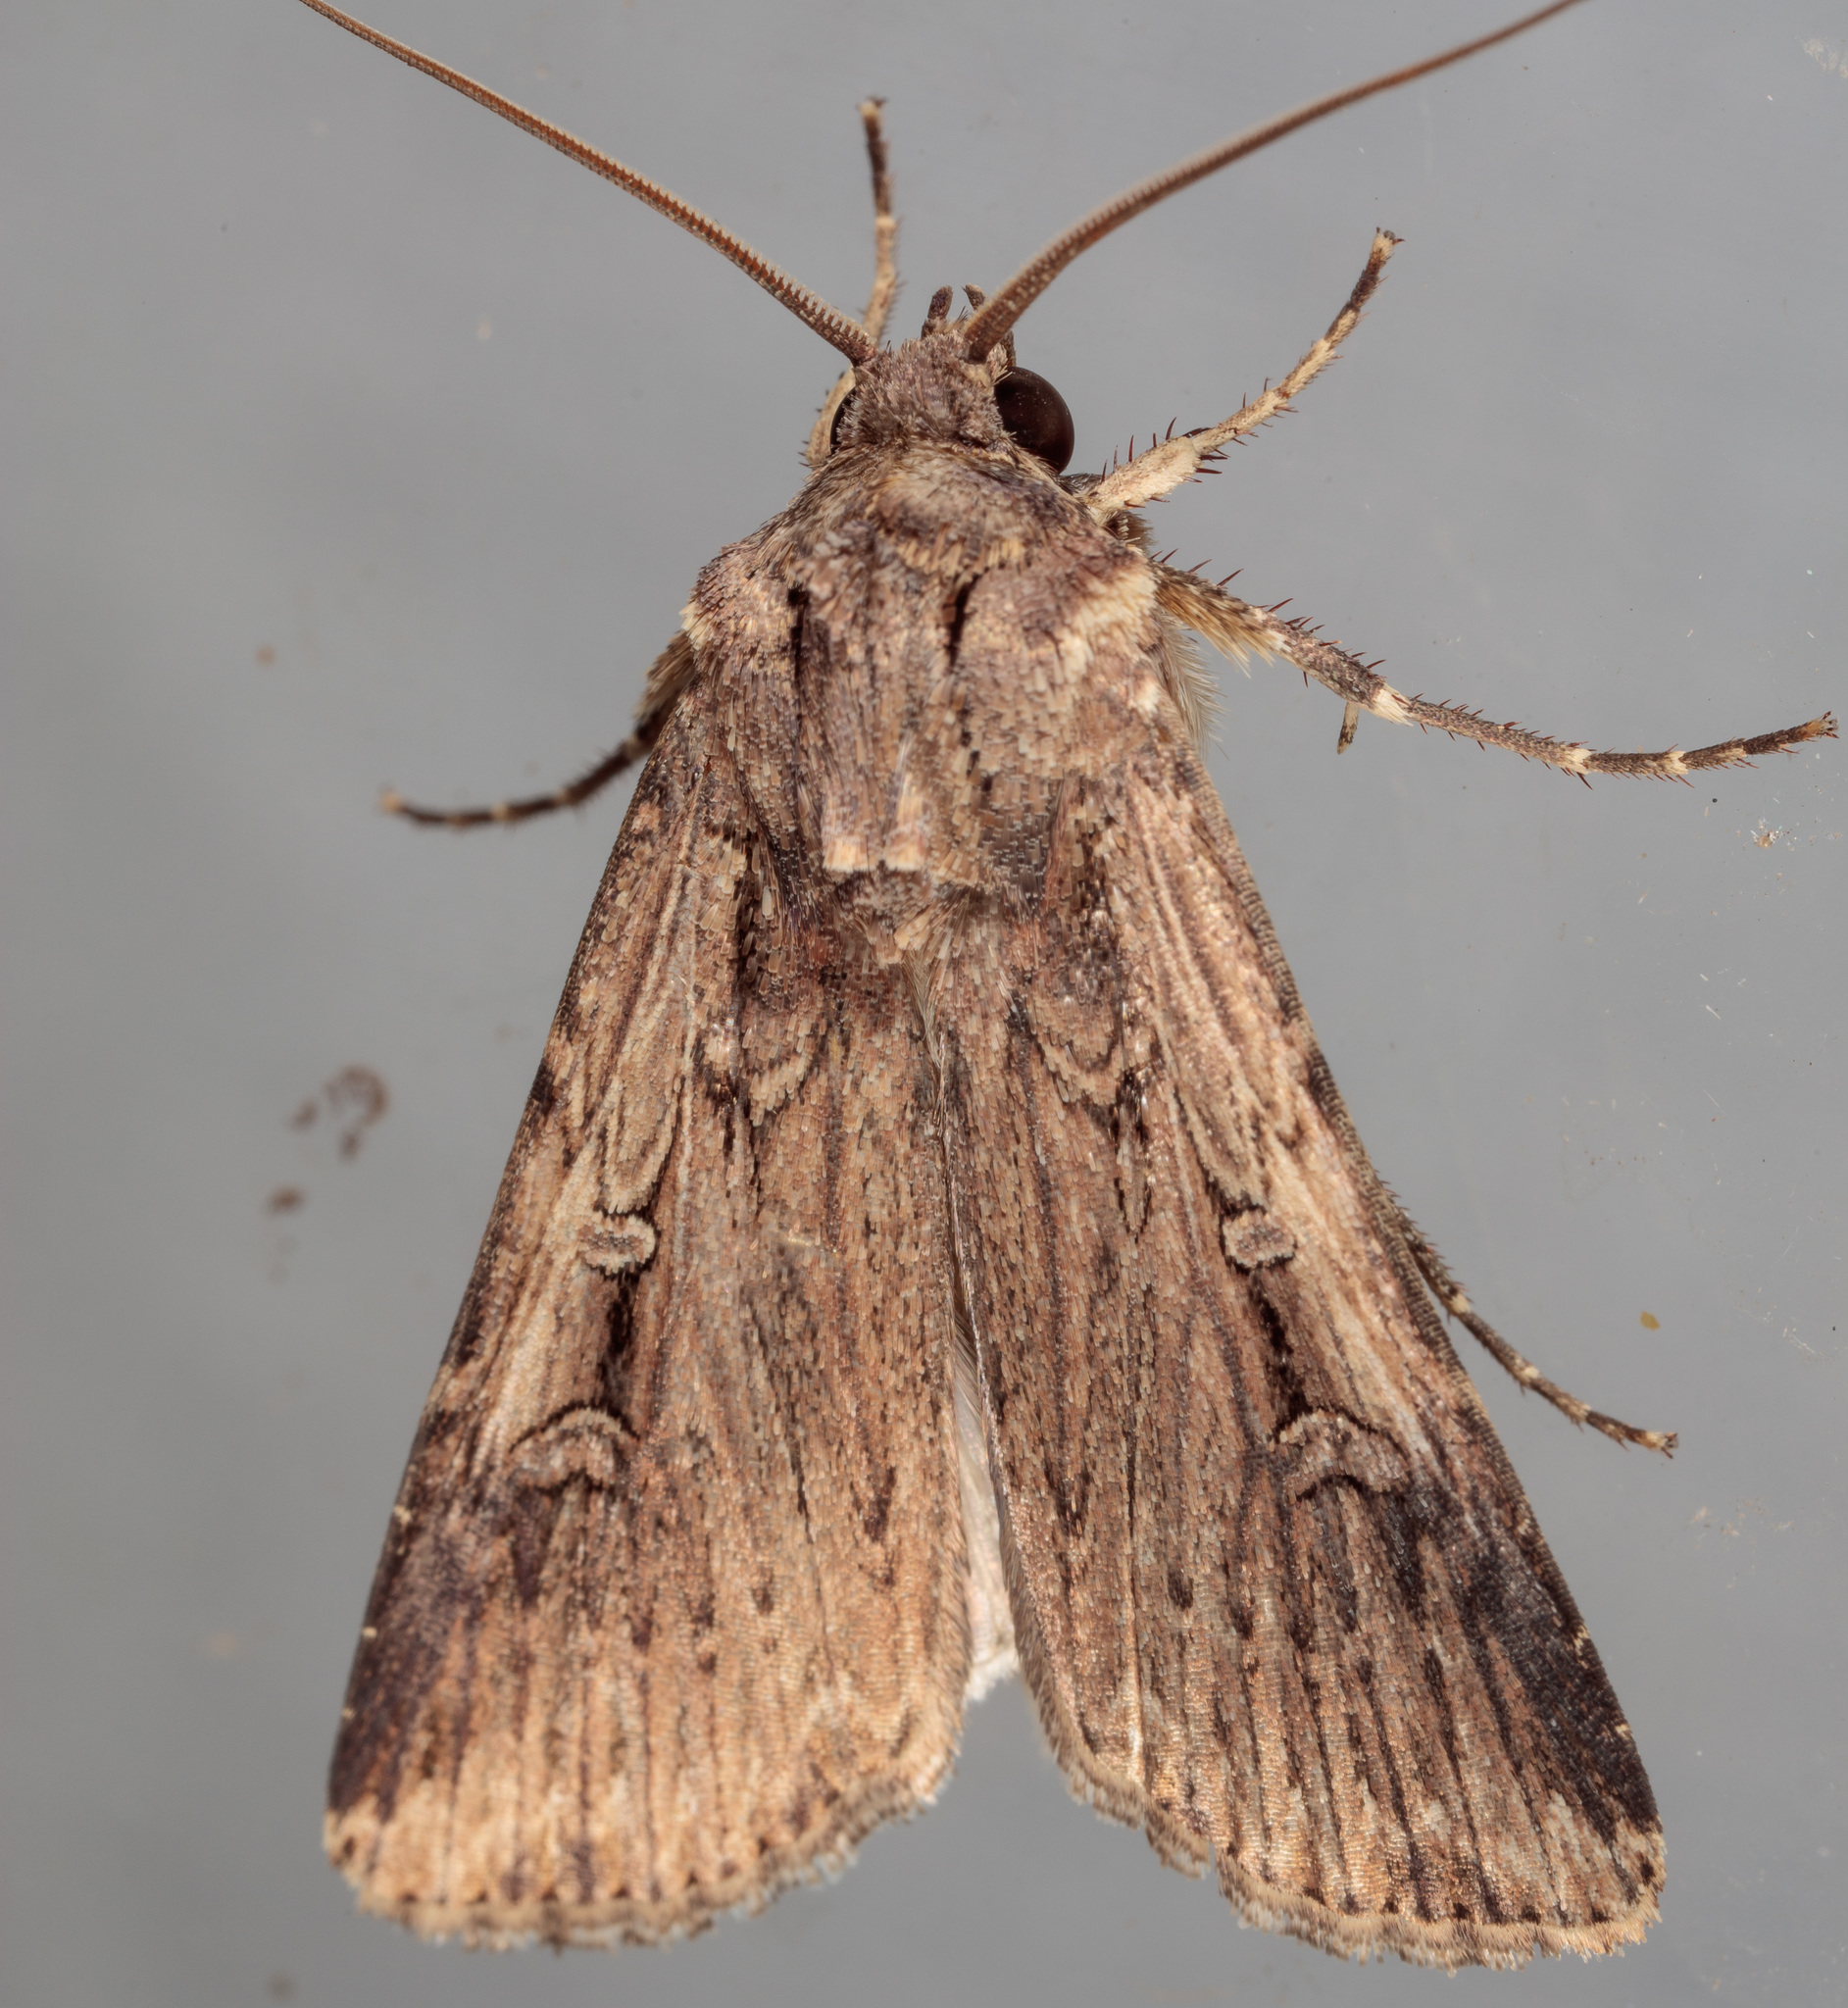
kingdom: Animalia
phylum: Arthropoda
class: Insecta
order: Lepidoptera
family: Noctuidae
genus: Feltia
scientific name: Feltia subterranea
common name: Granulate cutworm
